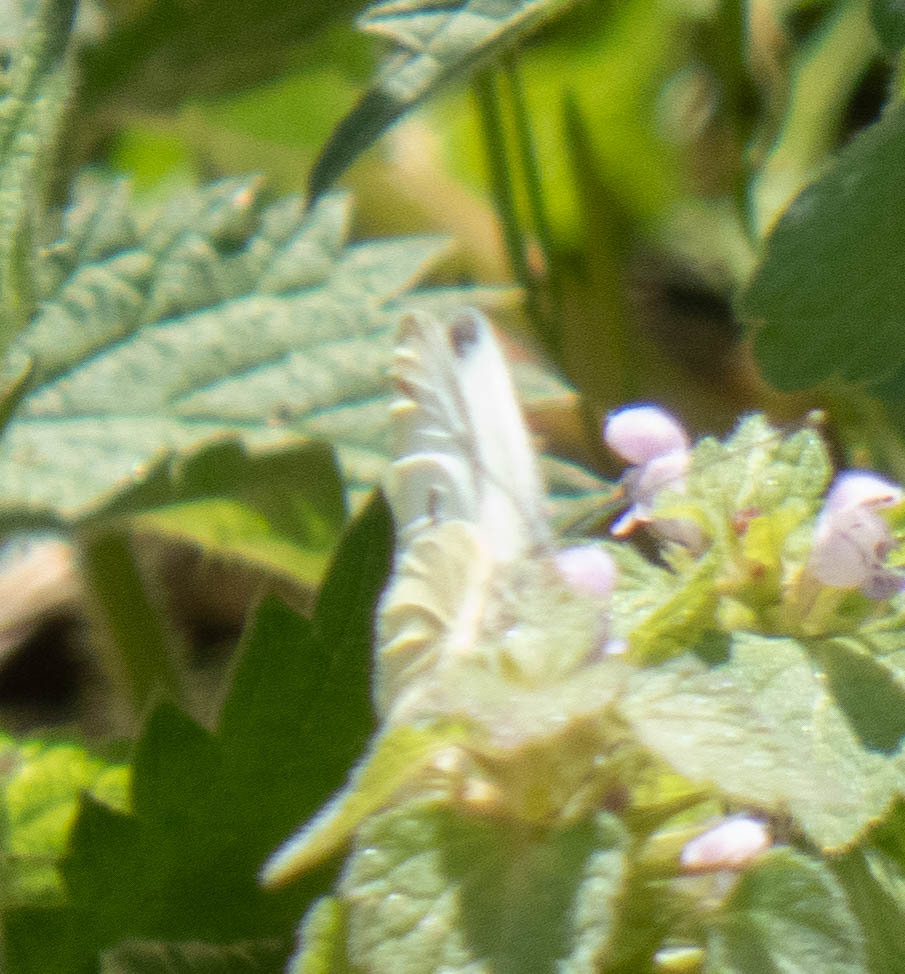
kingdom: Animalia
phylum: Arthropoda
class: Insecta
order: Lepidoptera
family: Pieridae
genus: Pieris
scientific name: Pieris rapae
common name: Small white
